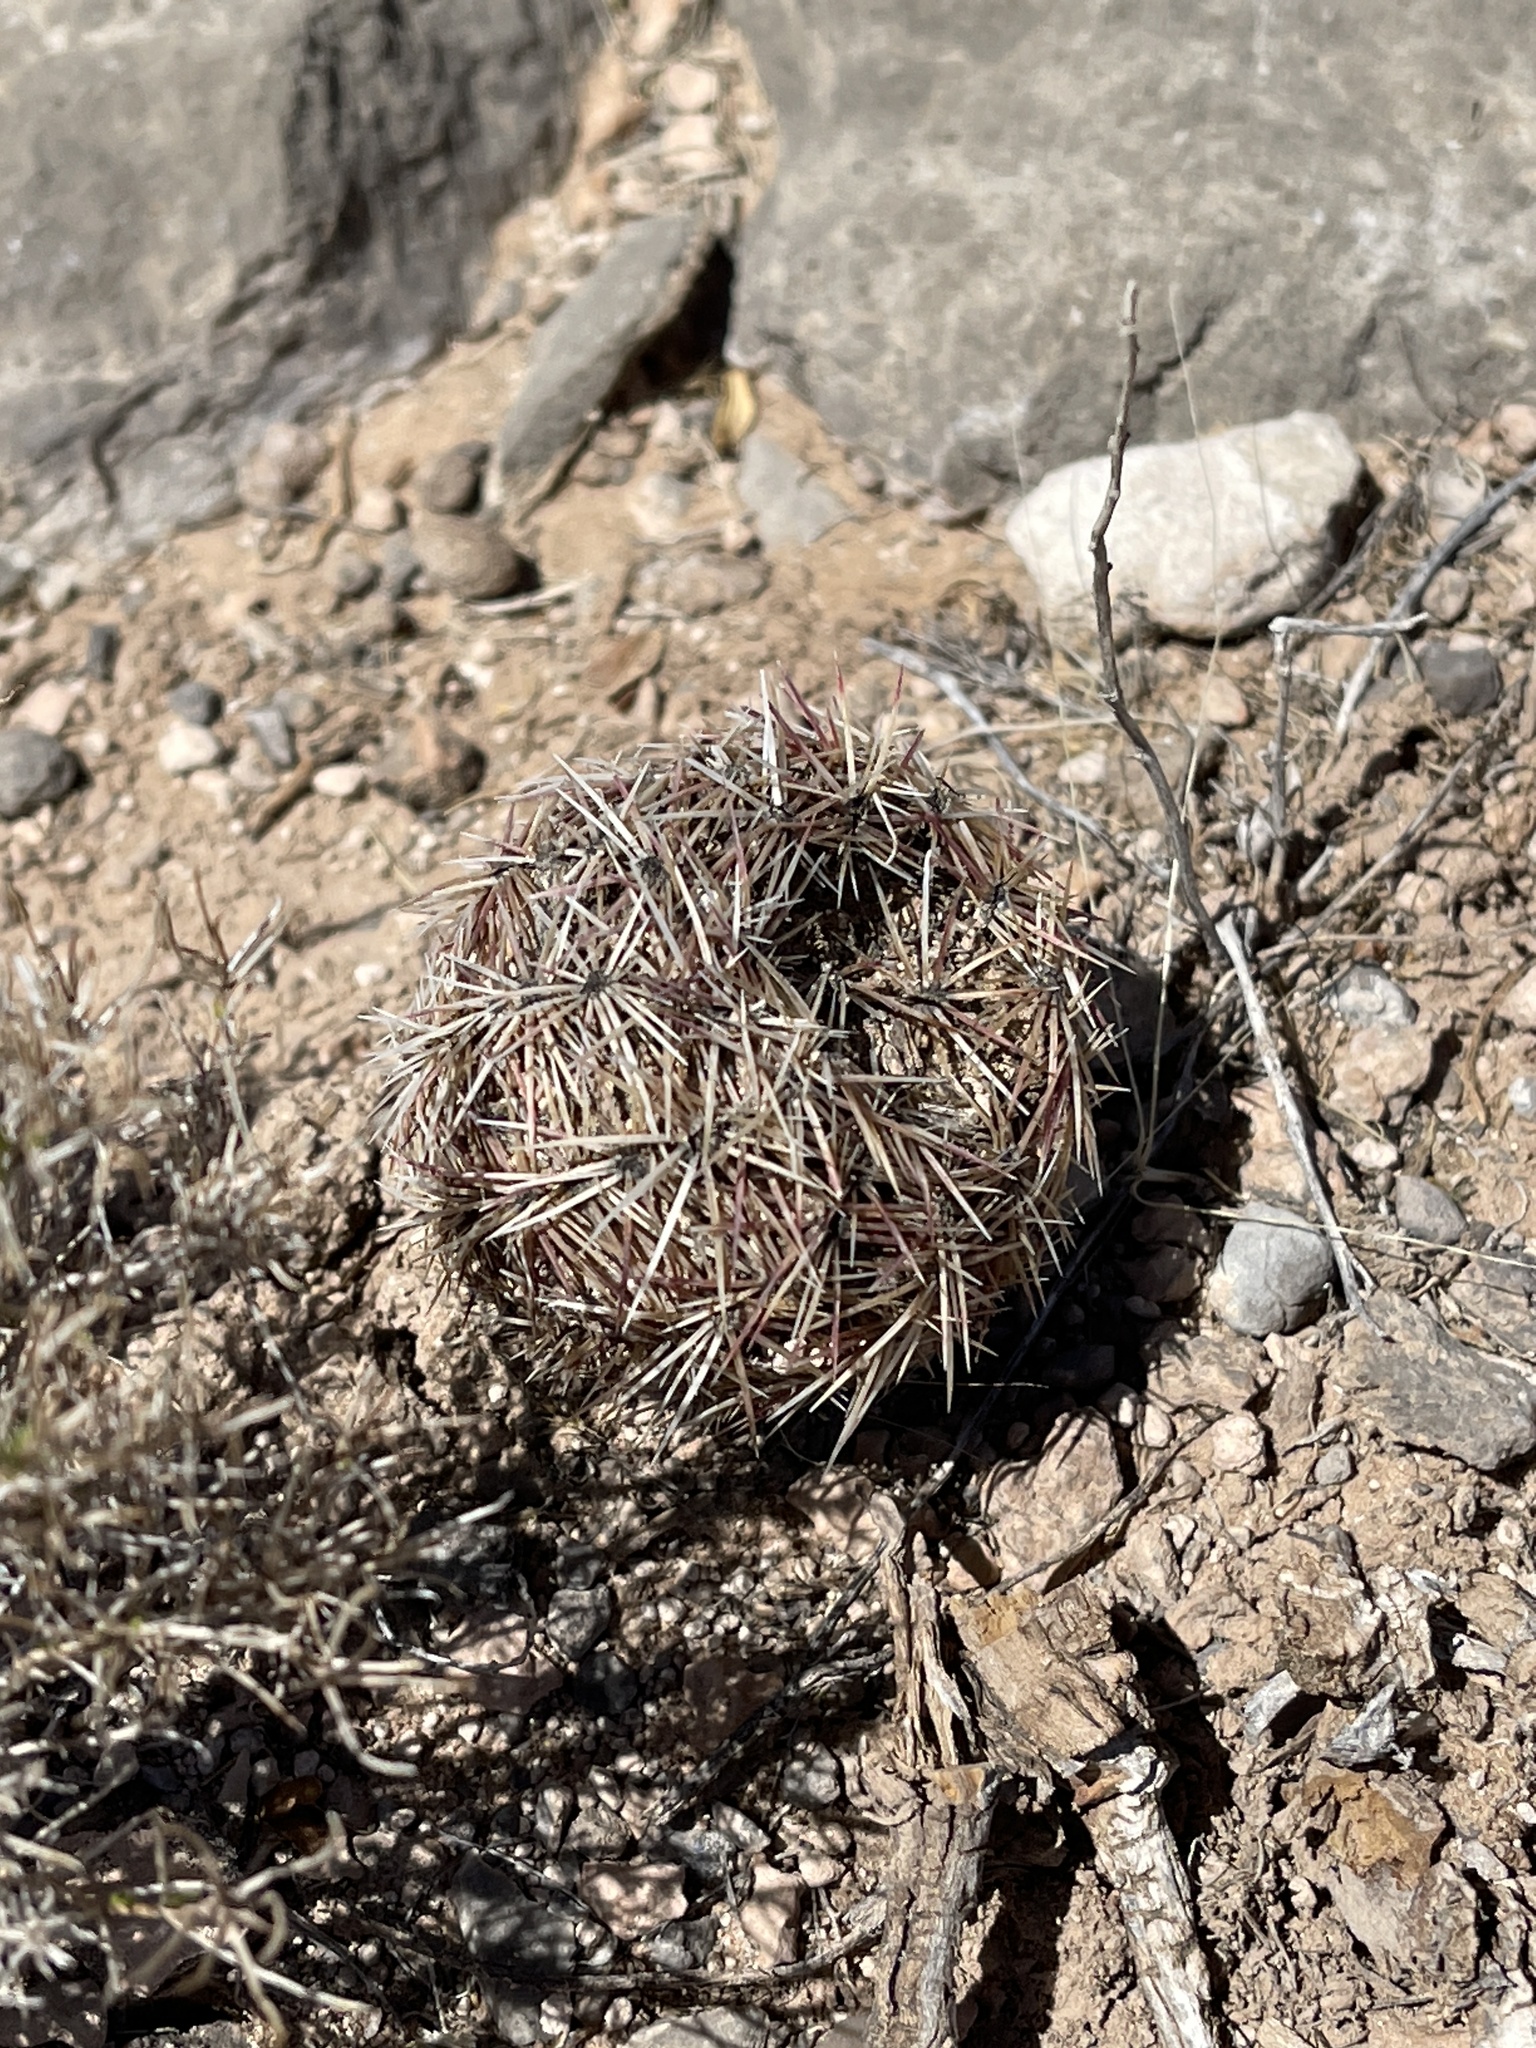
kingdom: Plantae
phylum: Tracheophyta
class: Magnoliopsida
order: Caryophyllales
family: Cactaceae
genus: Sclerocactus
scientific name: Sclerocactus intertextus
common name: White fish-hook cactus
